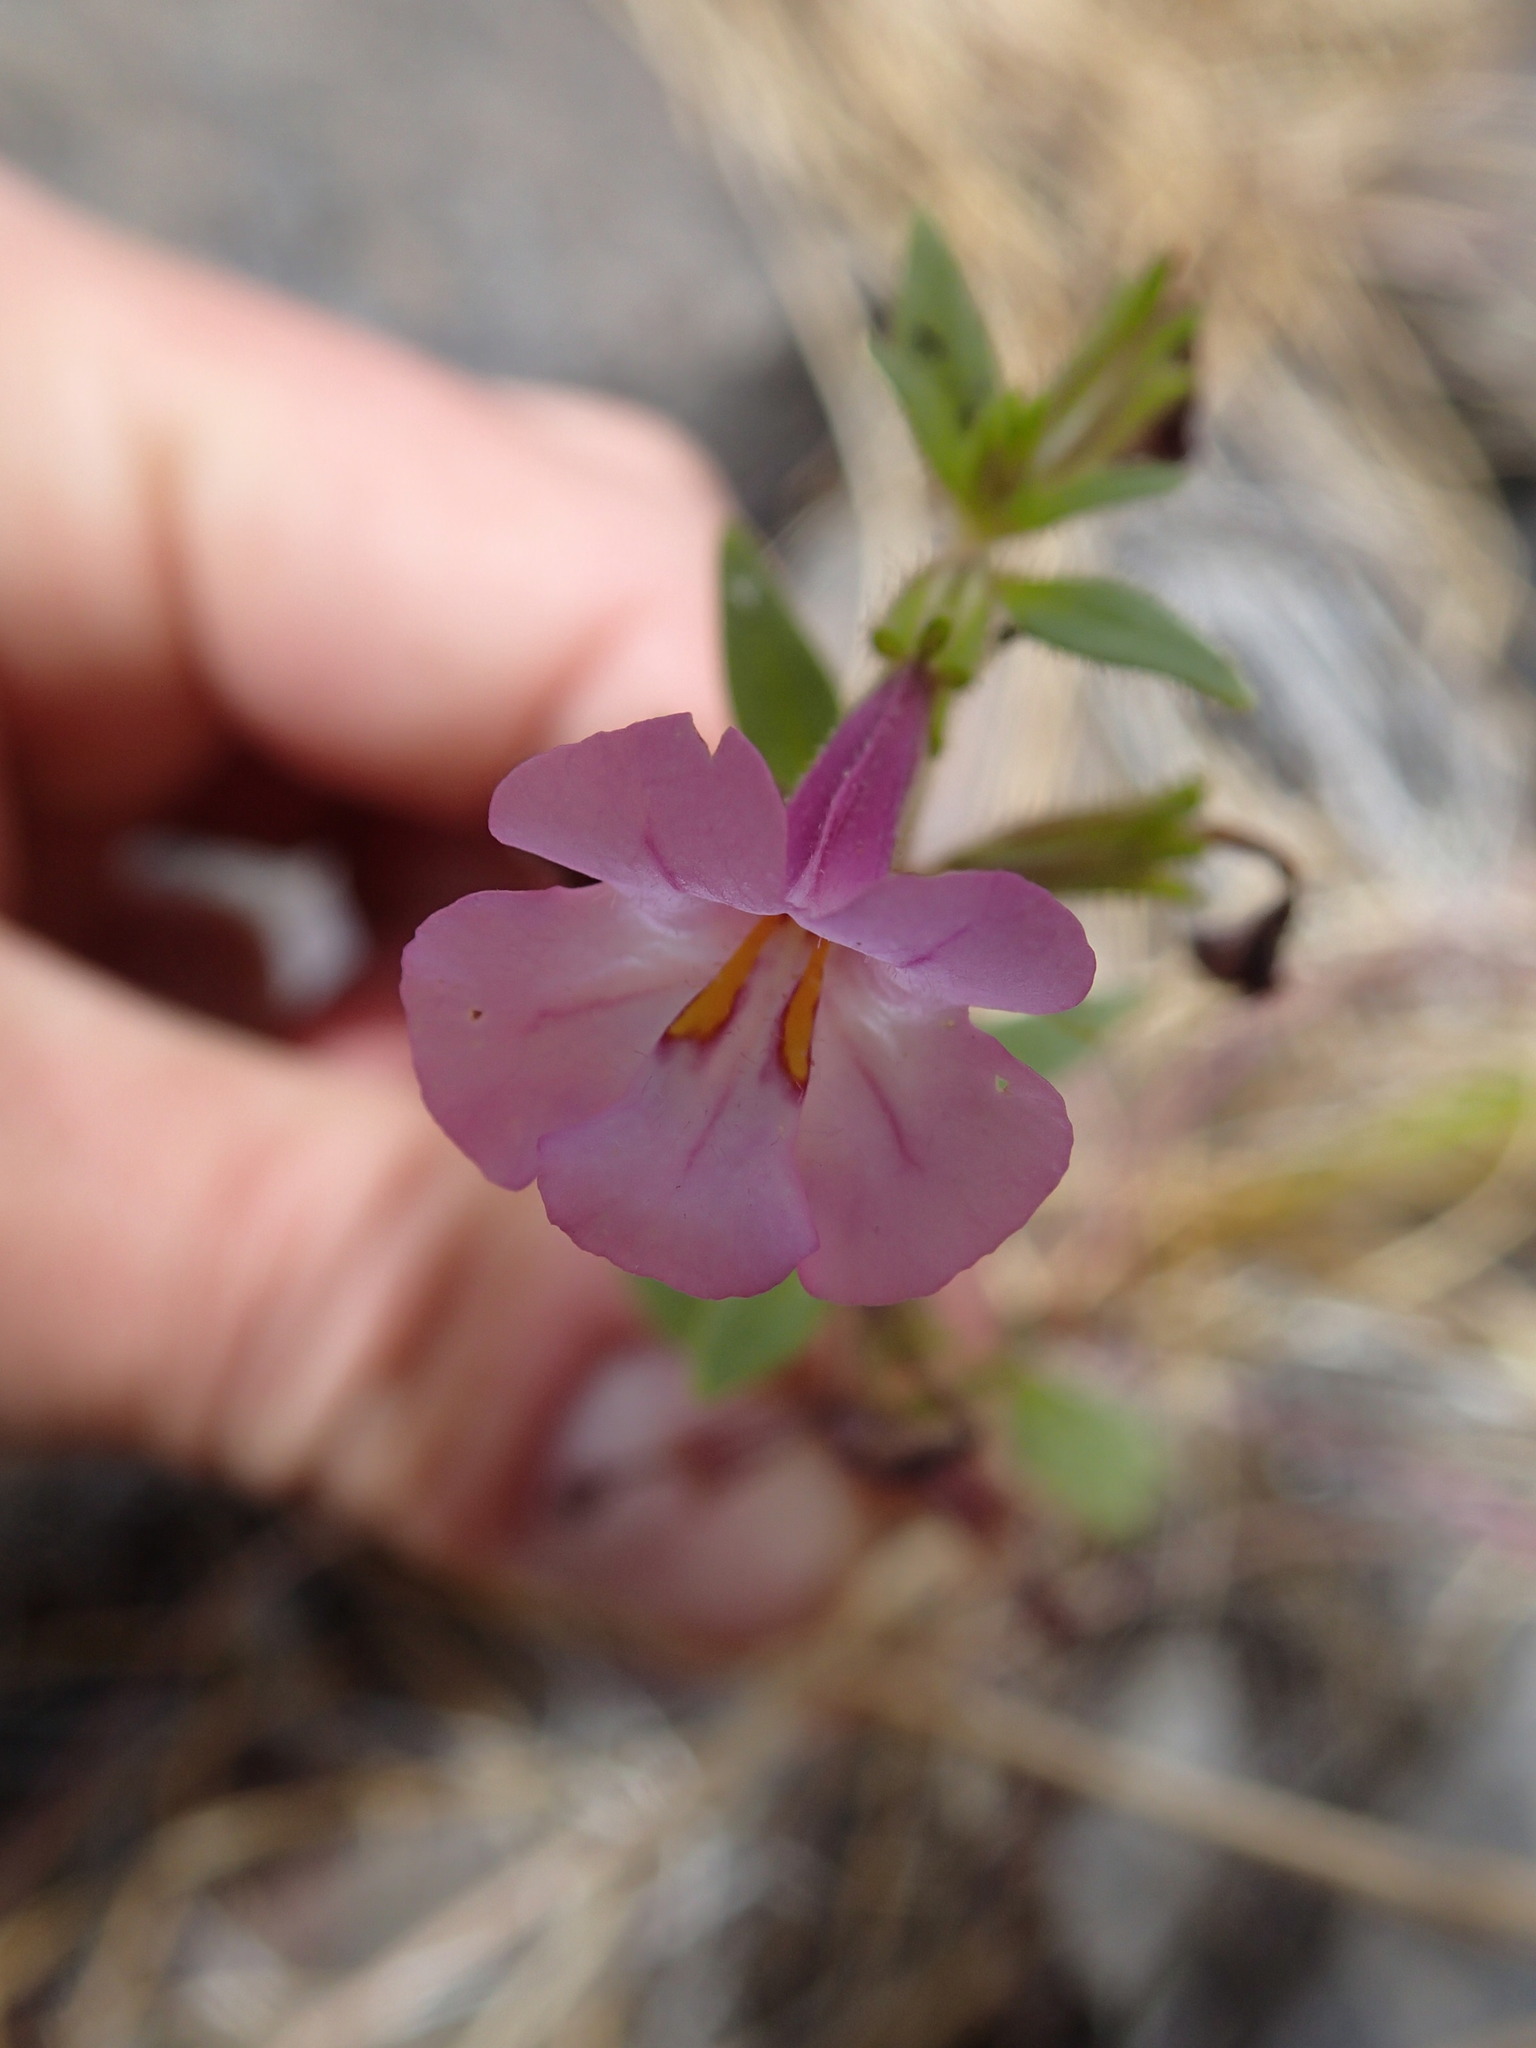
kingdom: Plantae
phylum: Tracheophyta
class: Magnoliopsida
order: Lamiales
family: Phrymaceae
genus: Diplacus
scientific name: Diplacus torreyi
